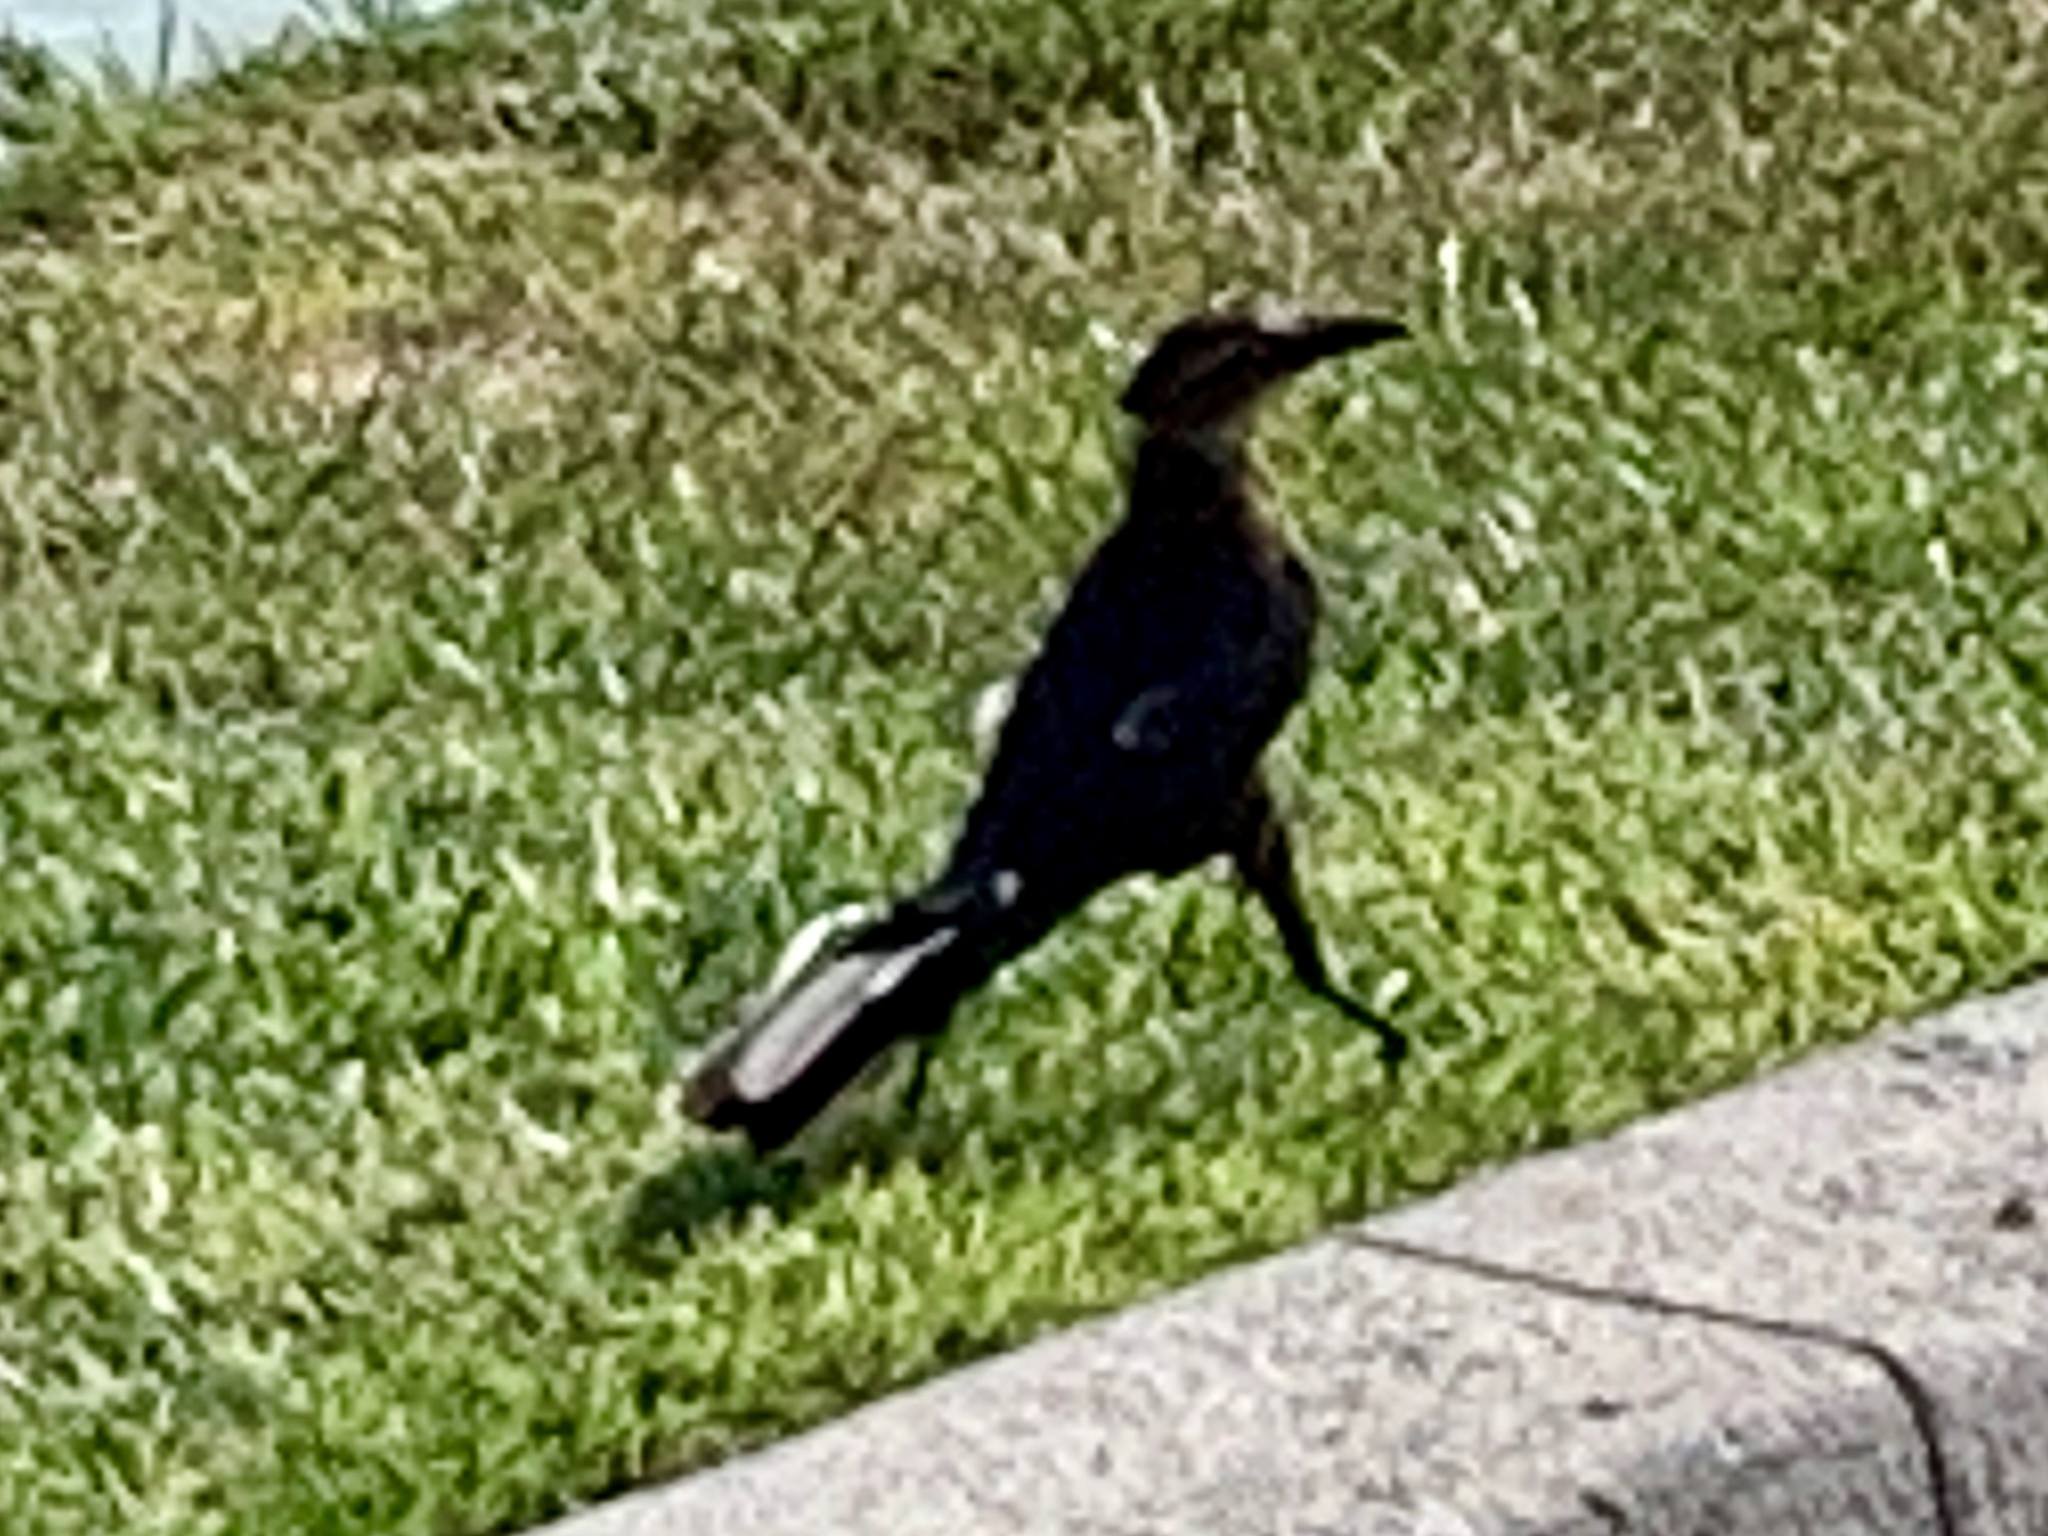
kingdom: Animalia
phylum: Chordata
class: Aves
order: Passeriformes
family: Icteridae
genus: Quiscalus
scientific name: Quiscalus mexicanus
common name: Great-tailed grackle
